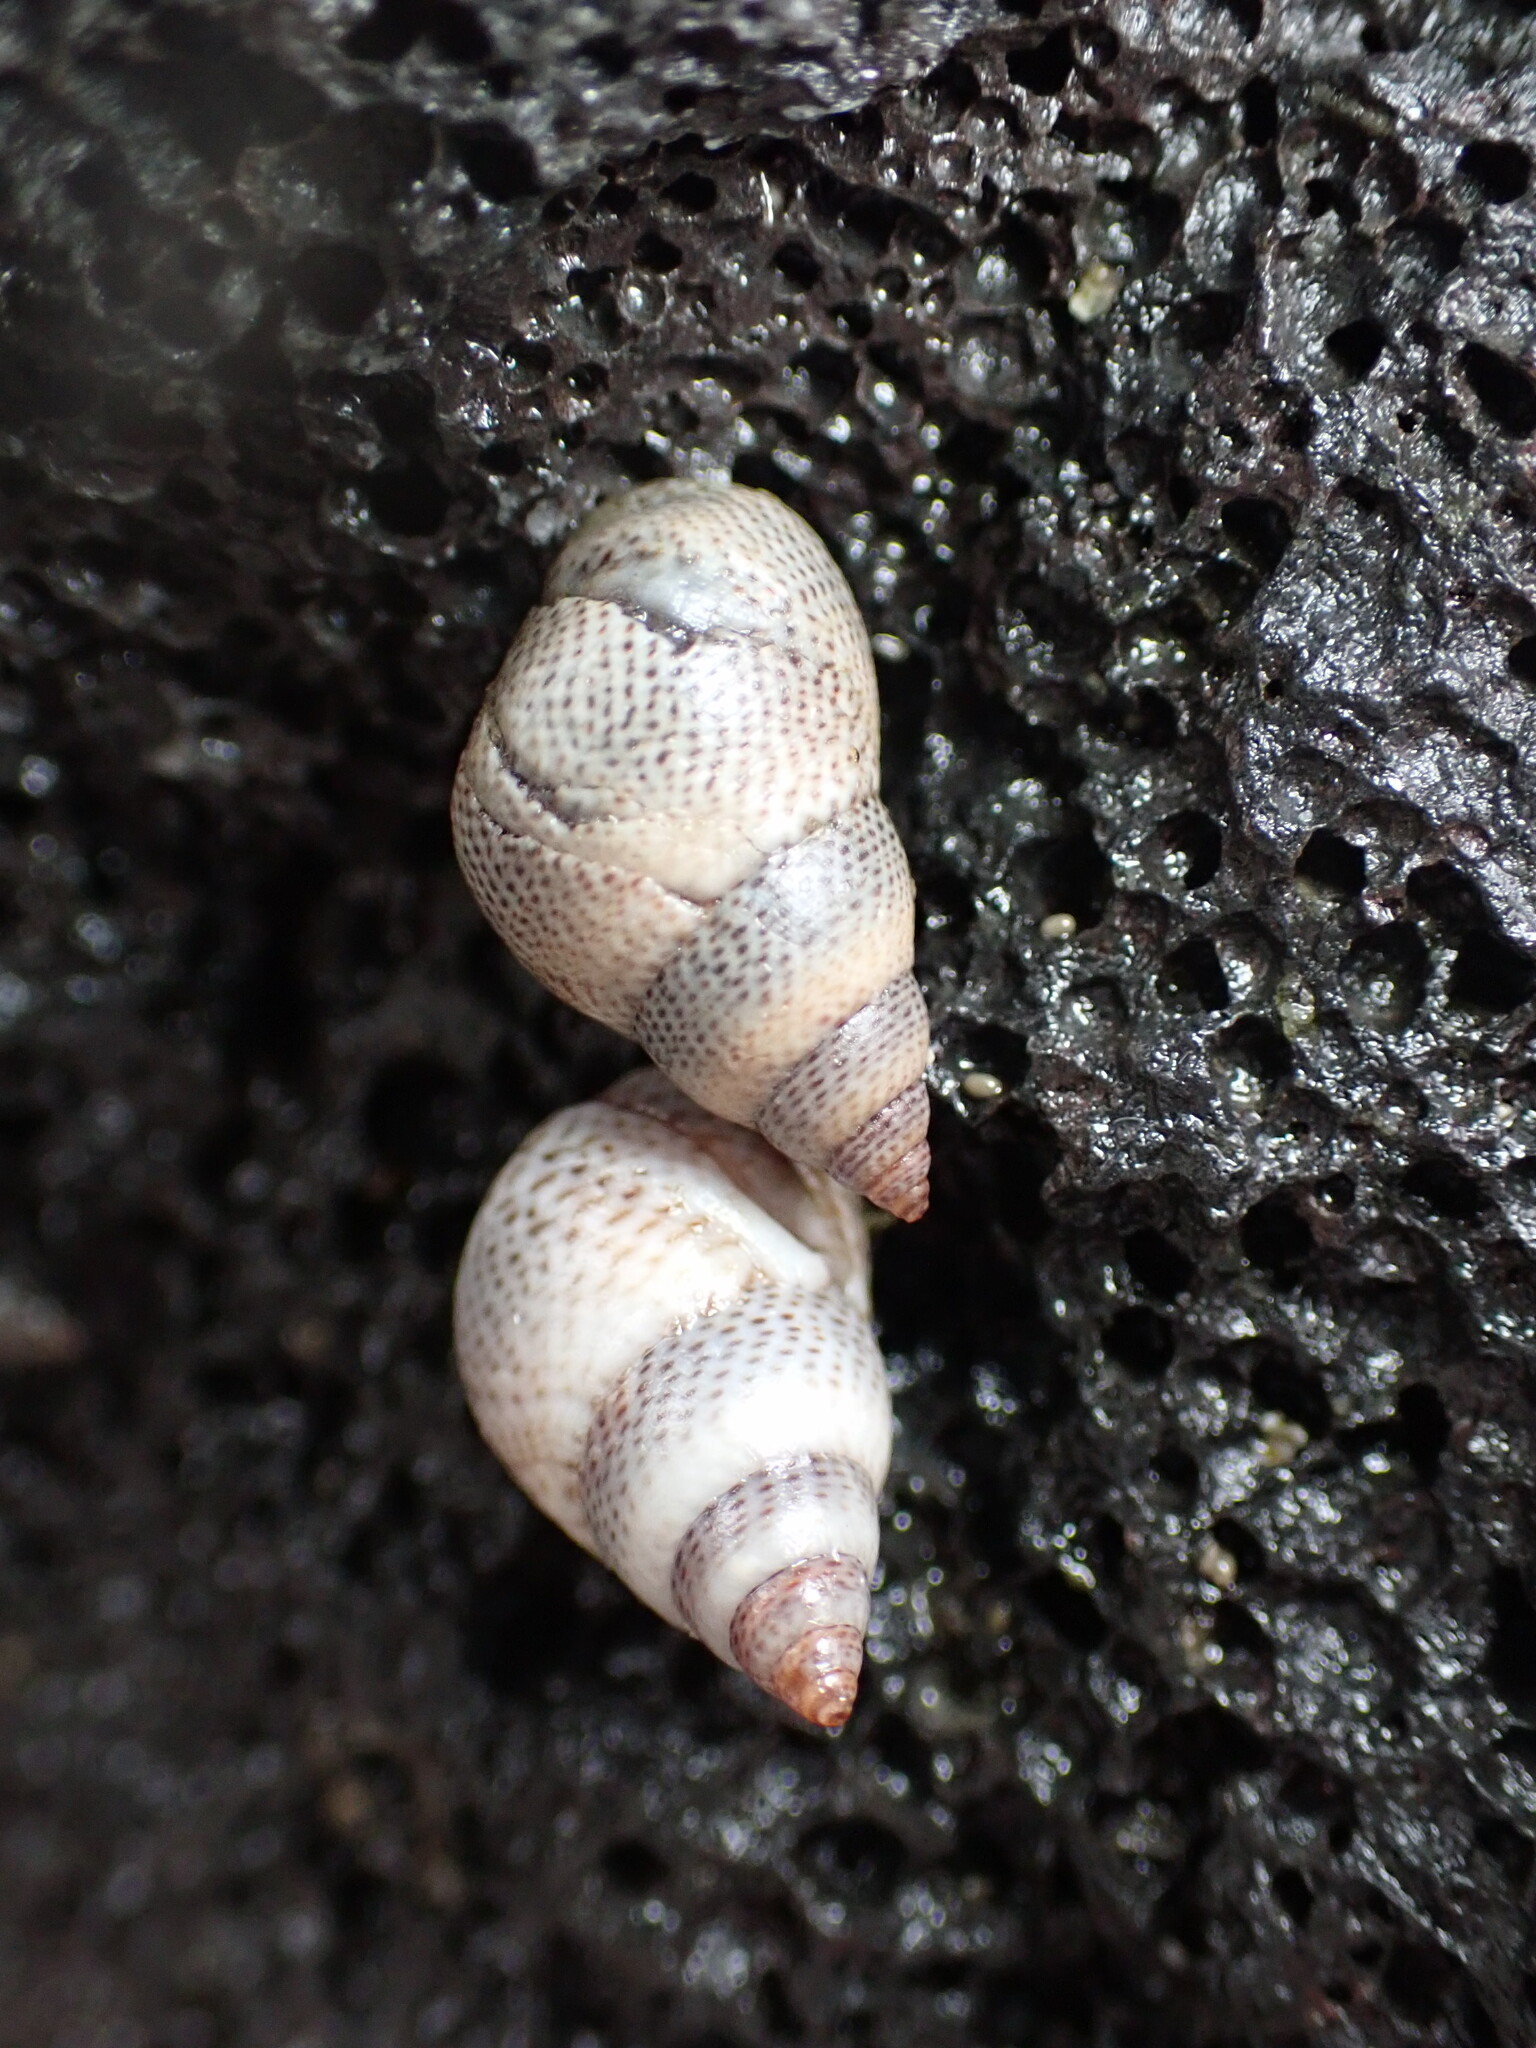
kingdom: Animalia
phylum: Mollusca
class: Gastropoda
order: Littorinimorpha
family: Littorinidae
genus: Littoraria
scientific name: Littoraria pintado
